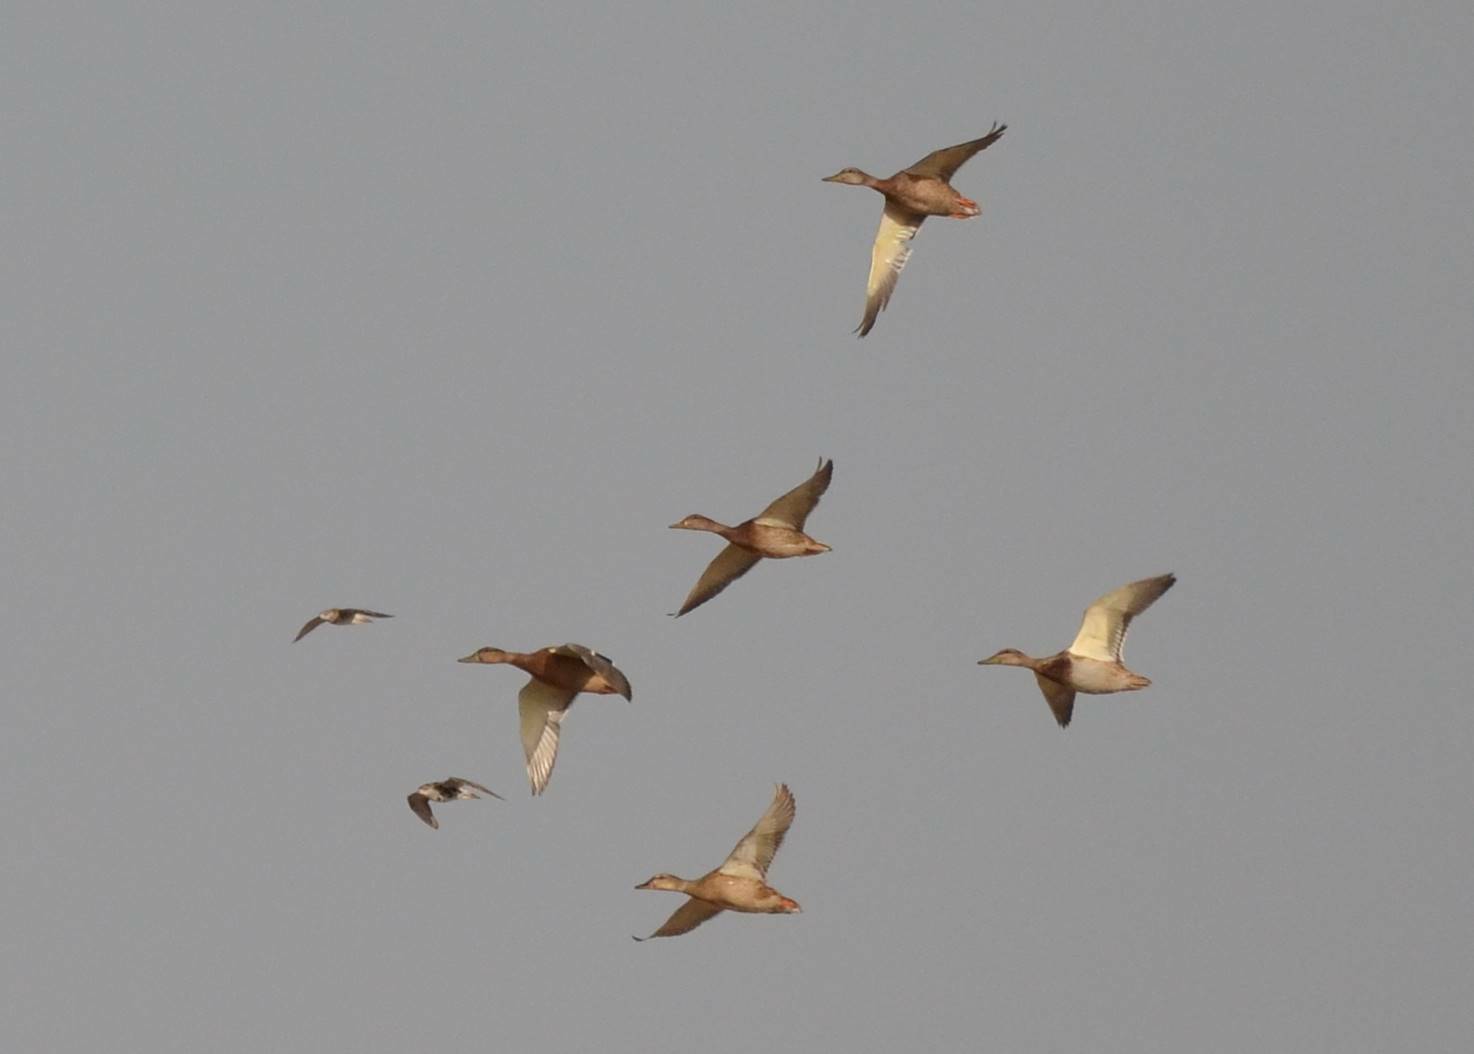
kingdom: Animalia
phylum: Chordata
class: Aves
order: Anseriformes
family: Anatidae
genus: Anas
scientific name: Anas platyrhynchos
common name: Mallard
